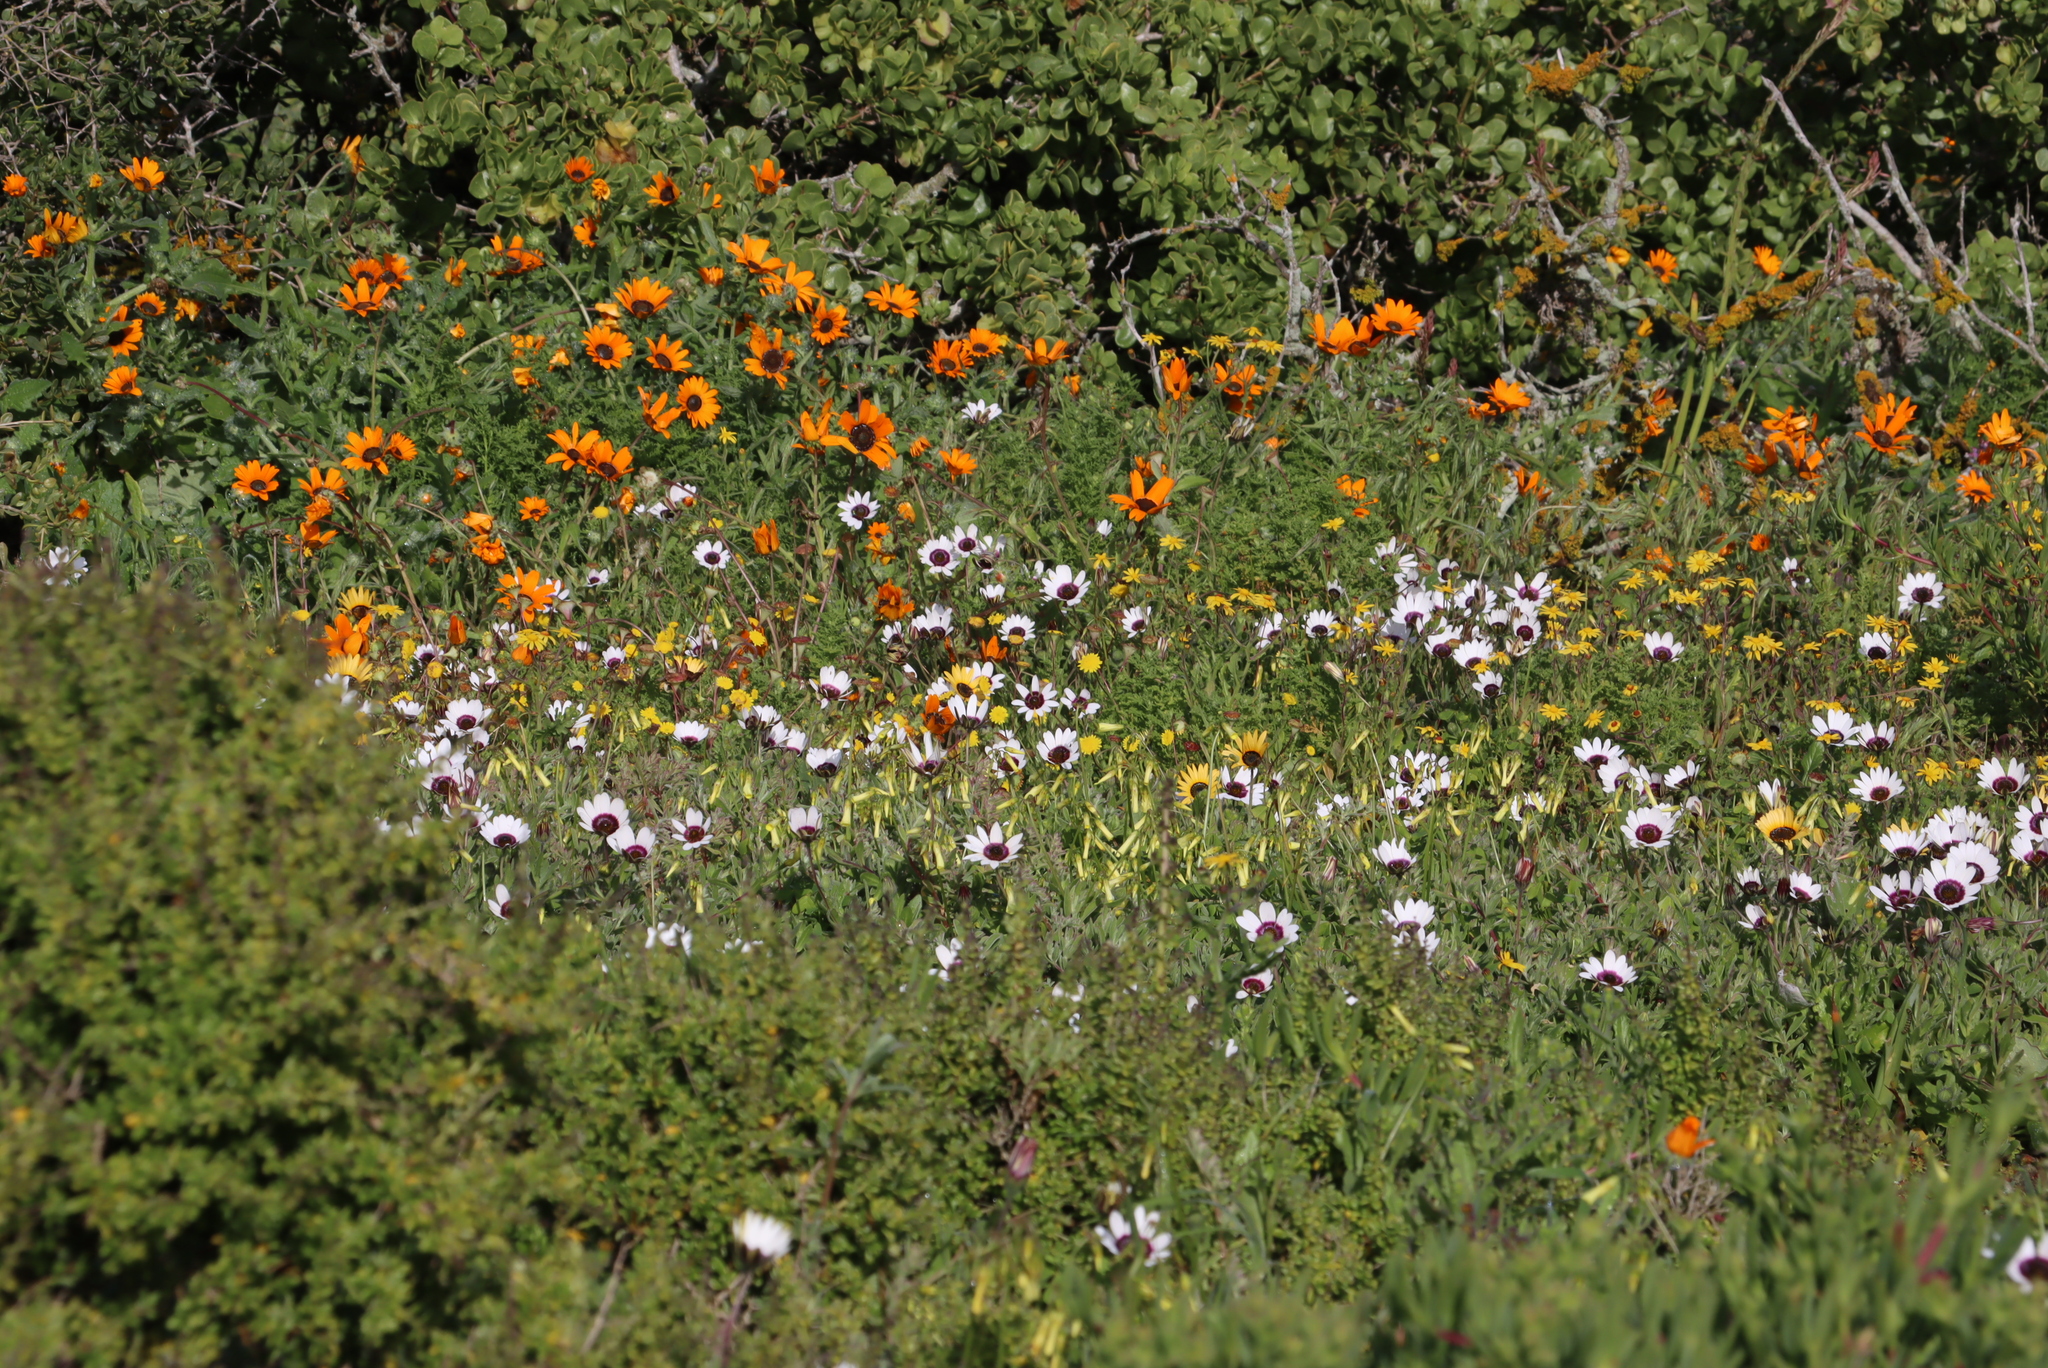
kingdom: Plantae
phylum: Tracheophyta
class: Magnoliopsida
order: Oxalidales
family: Oxalidaceae
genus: Oxalis
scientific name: Oxalis pes-caprae
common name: Bermuda-buttercup
